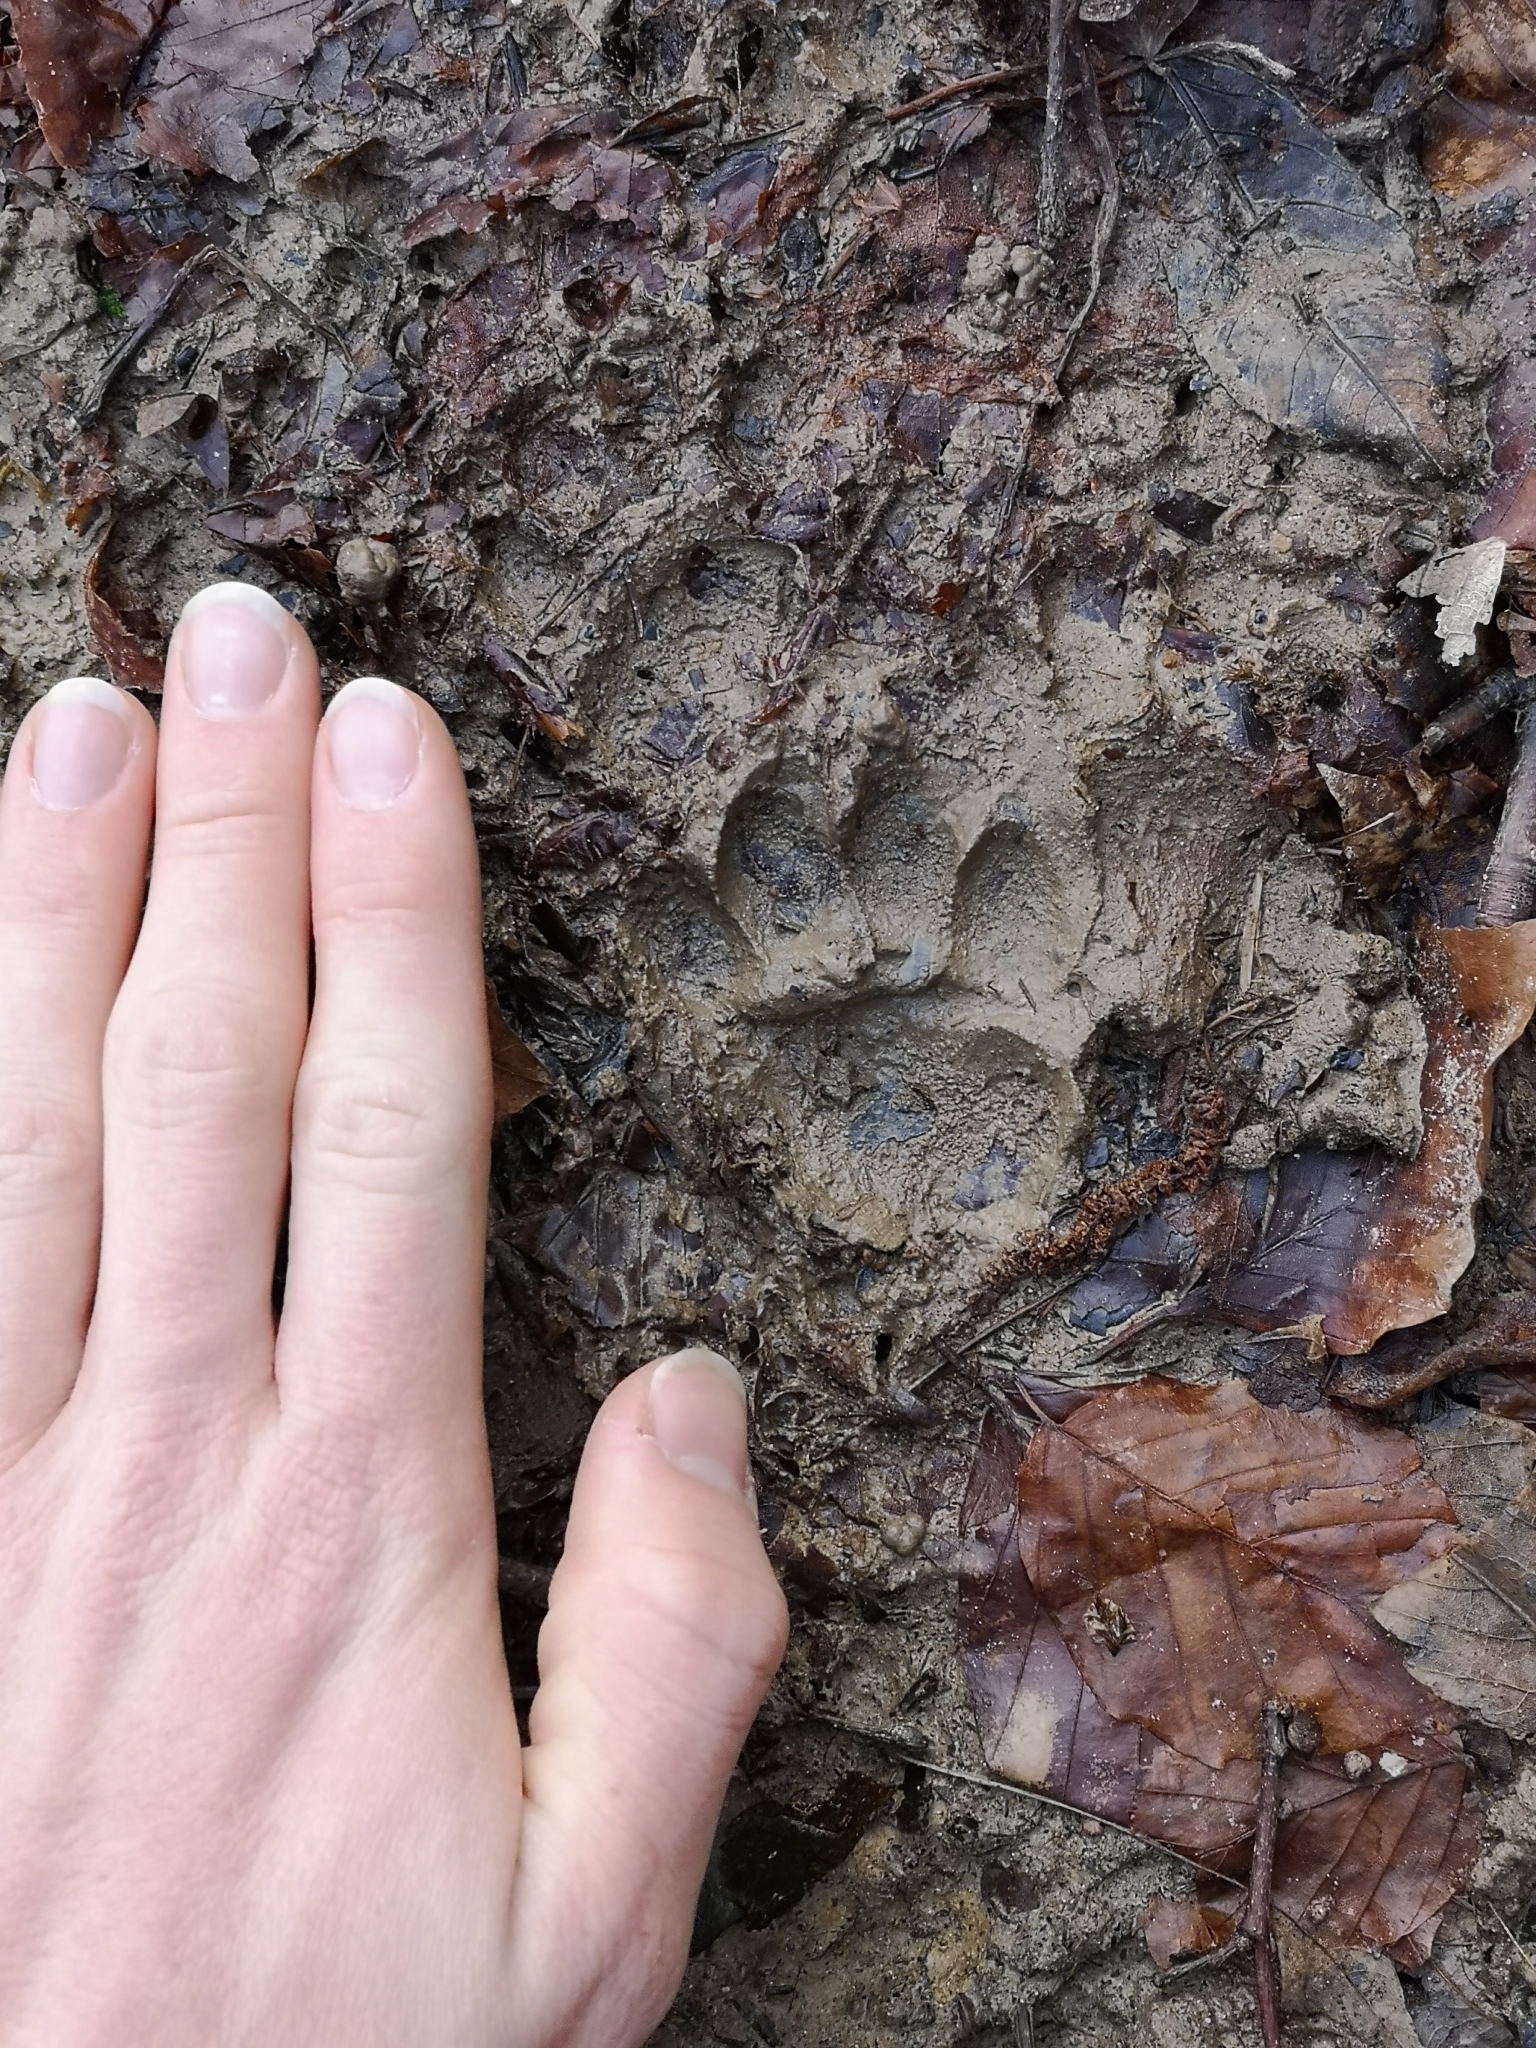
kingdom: Animalia
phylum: Chordata
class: Mammalia
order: Carnivora
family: Mustelidae
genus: Meles
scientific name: Meles meles
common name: Eurasian badger
